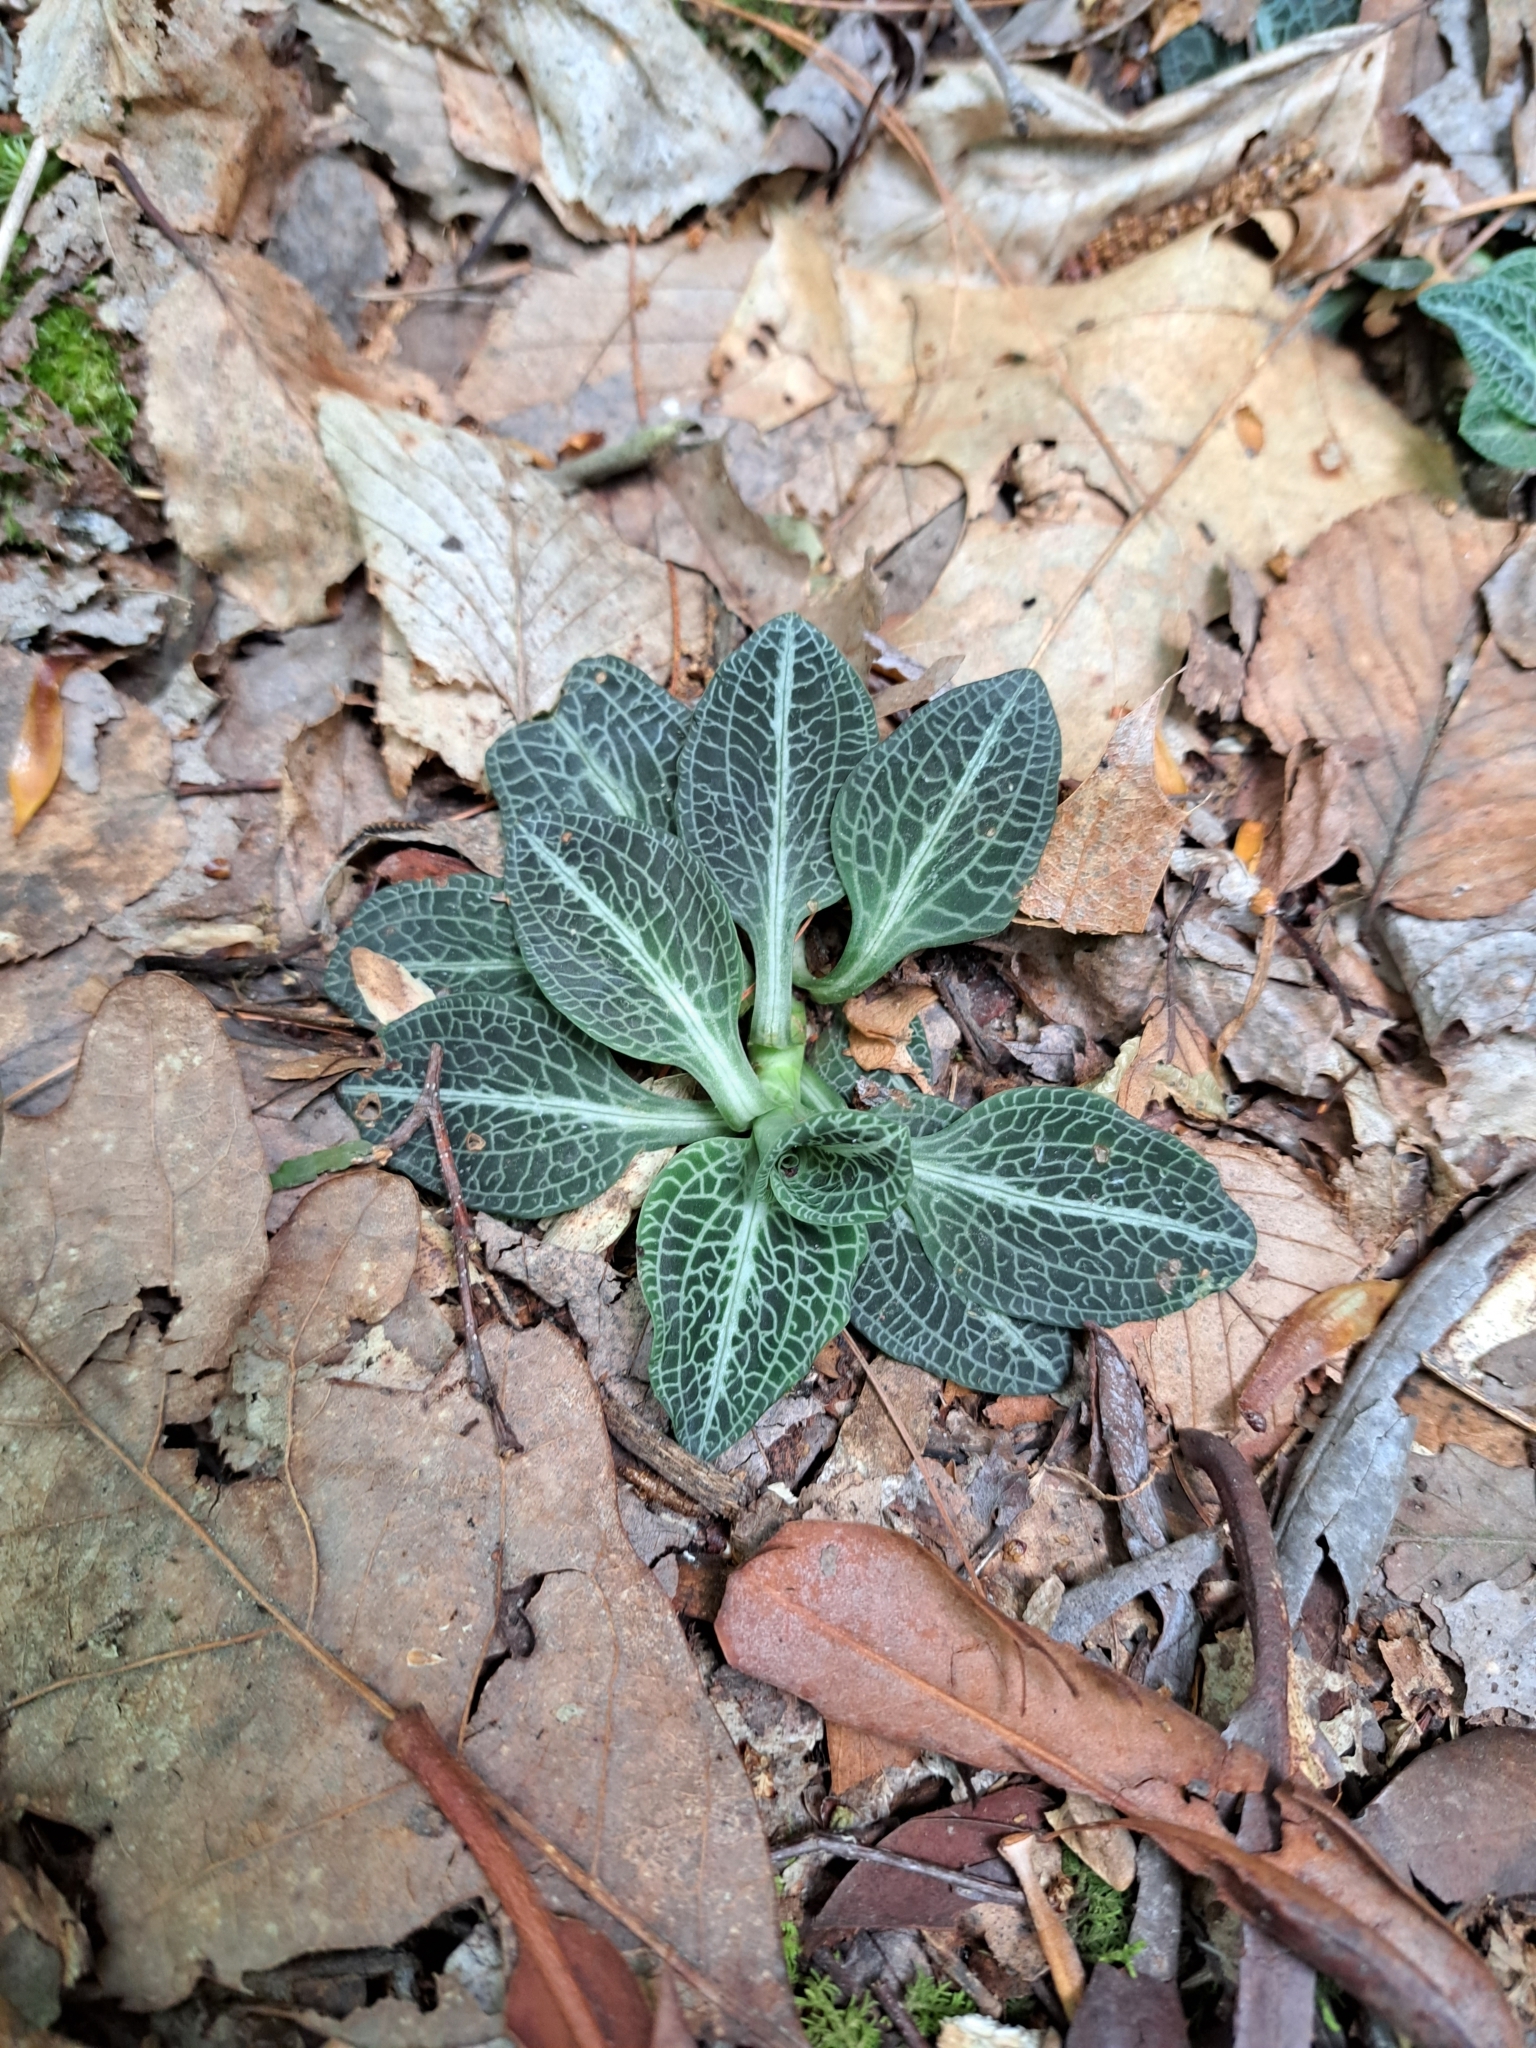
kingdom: Plantae
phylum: Tracheophyta
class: Liliopsida
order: Asparagales
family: Orchidaceae
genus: Goodyera
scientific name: Goodyera pubescens
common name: Downy rattlesnake-plantain
